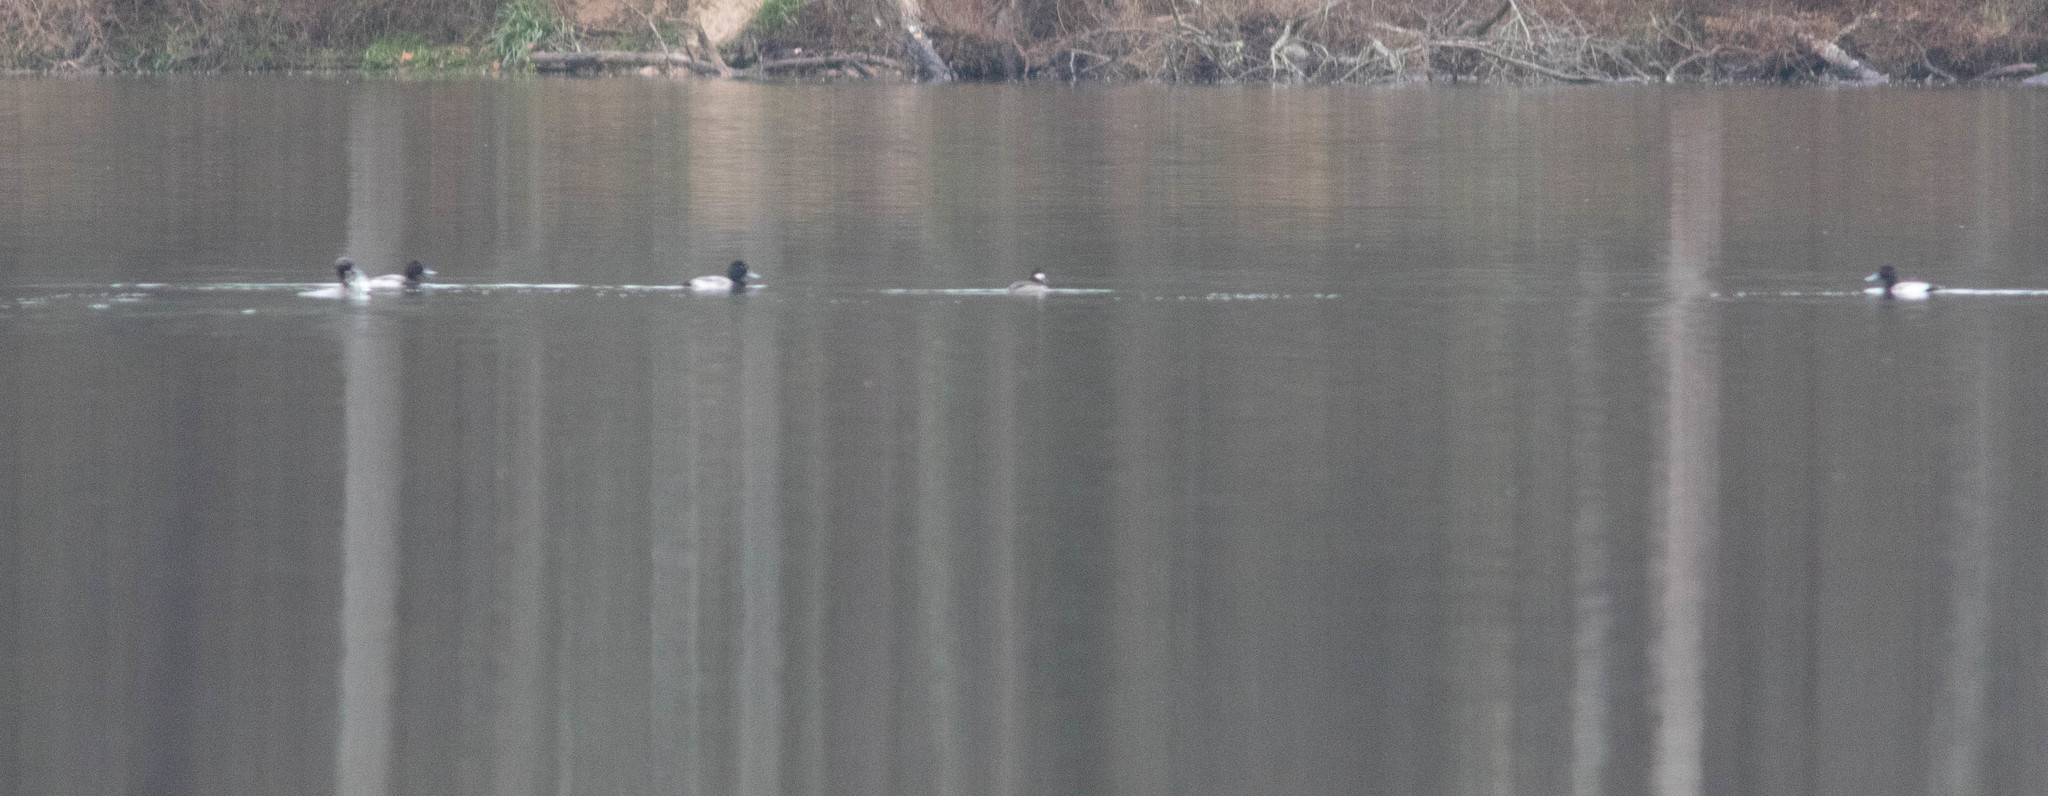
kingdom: Animalia
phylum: Chordata
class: Aves
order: Anseriformes
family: Anatidae
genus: Aythya
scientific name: Aythya affinis
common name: Lesser scaup
